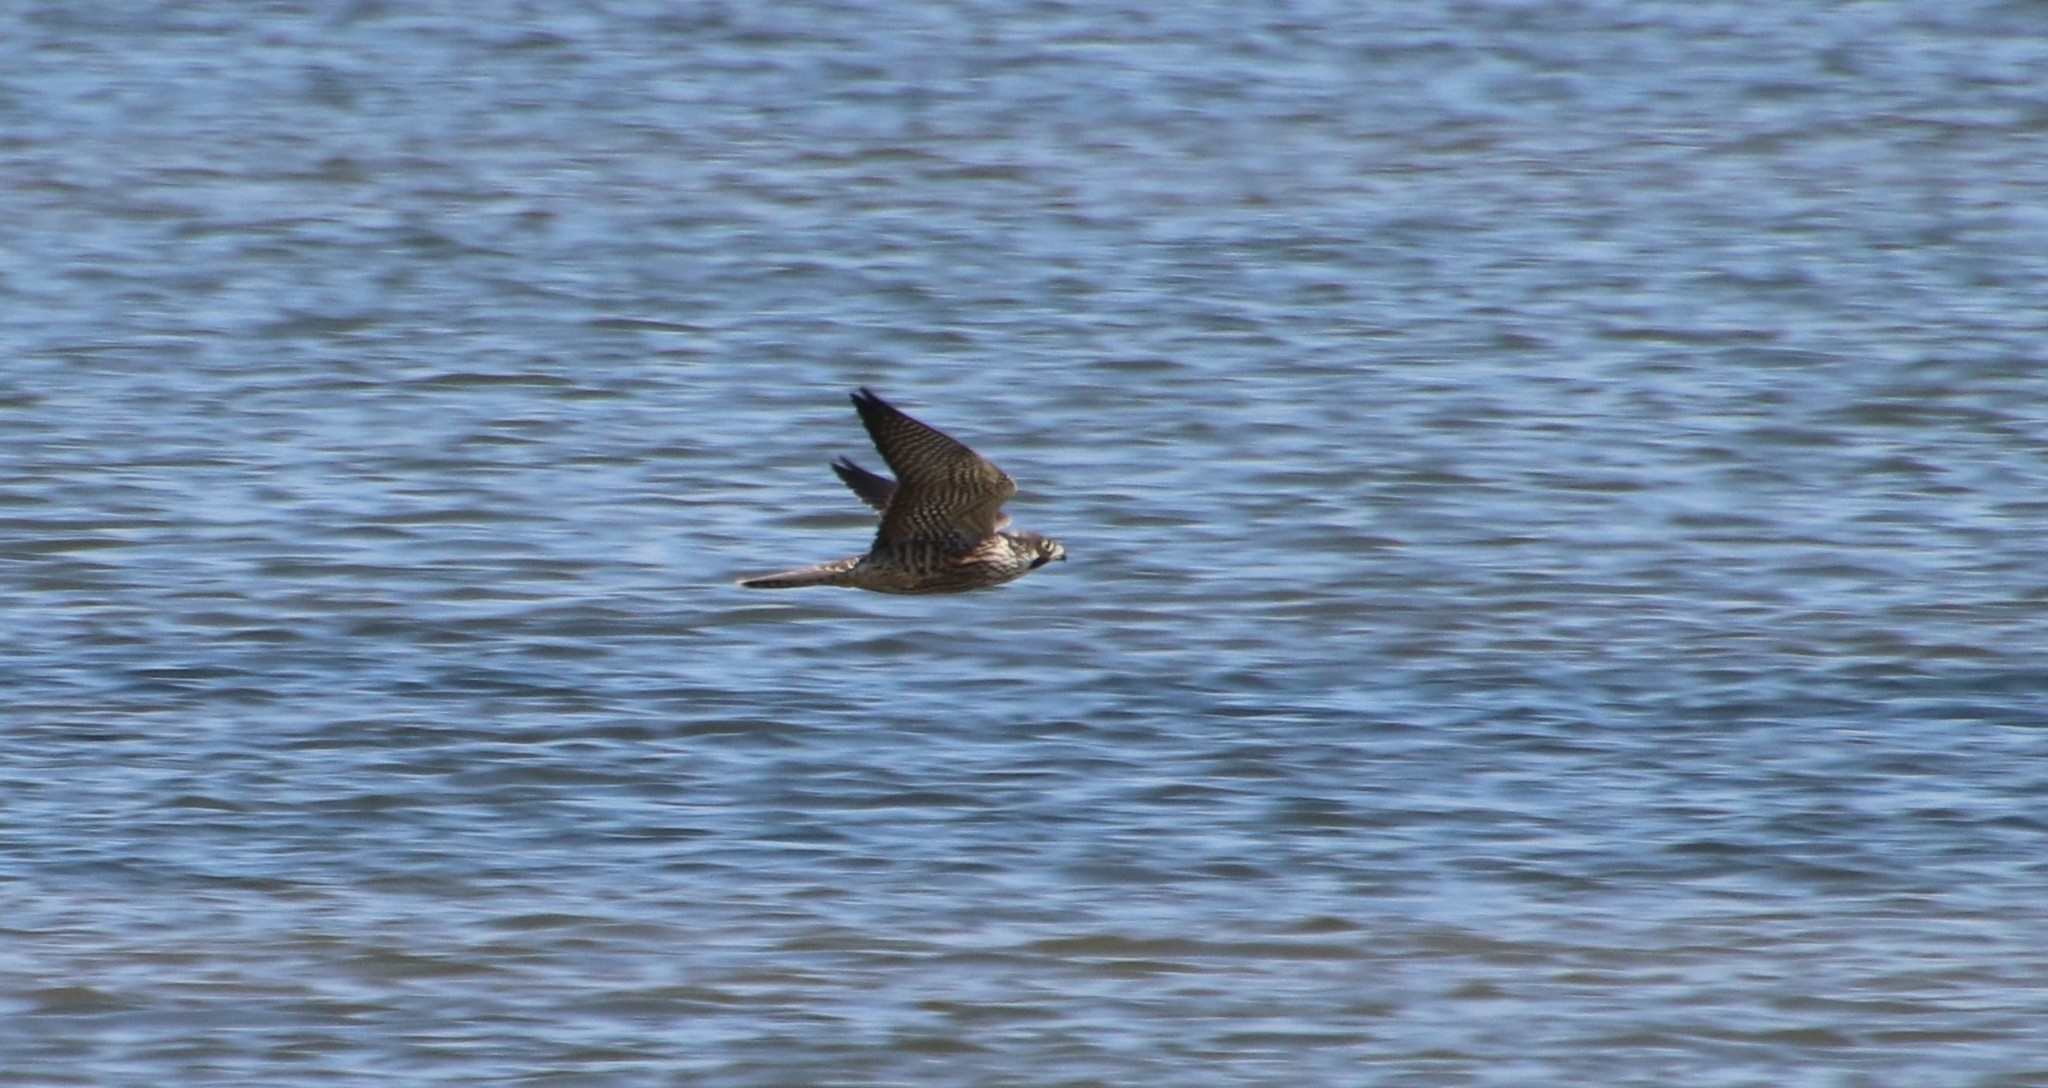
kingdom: Animalia
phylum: Chordata
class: Aves
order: Falconiformes
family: Falconidae
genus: Falco
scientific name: Falco peregrinus
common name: Peregrine falcon
